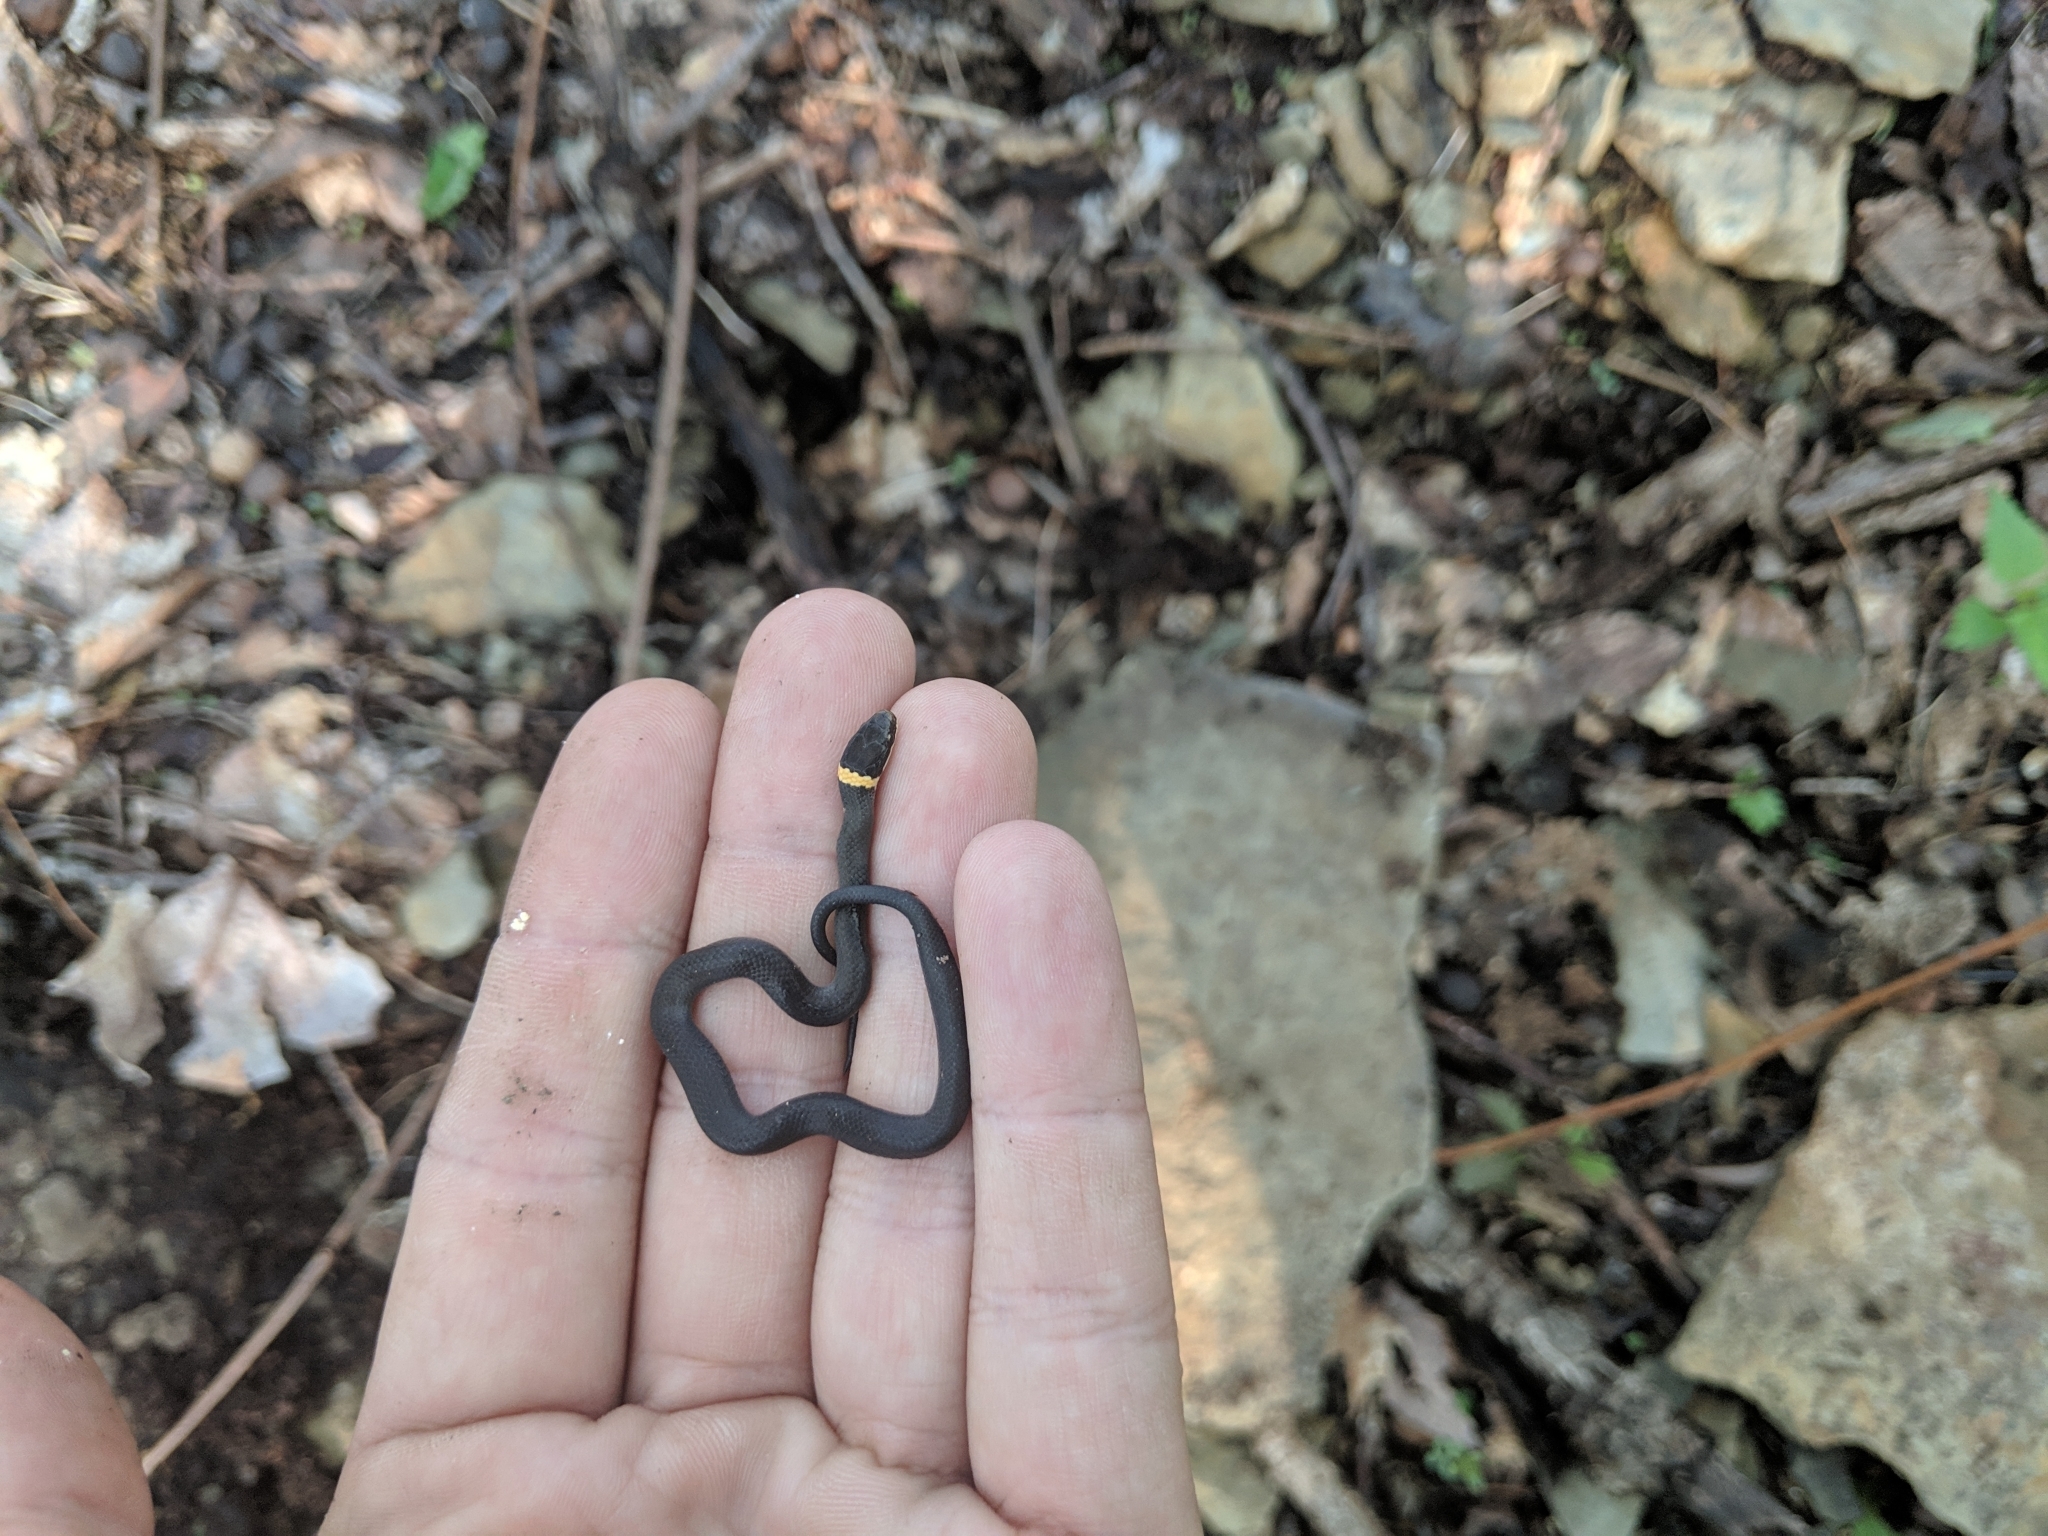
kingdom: Animalia
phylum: Chordata
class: Squamata
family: Colubridae
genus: Diadophis
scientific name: Diadophis punctatus
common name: Ringneck snake
